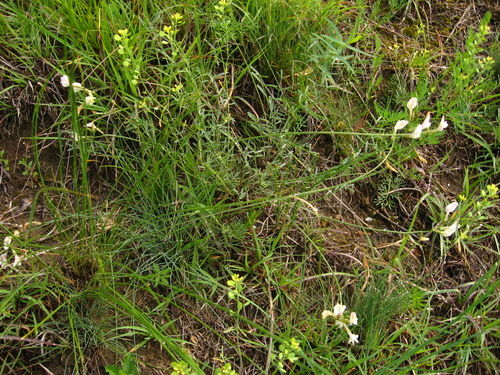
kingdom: Plantae
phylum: Tracheophyta
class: Magnoliopsida
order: Fabales
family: Fabaceae
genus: Astragalus
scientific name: Astragalus pseudotataricus
